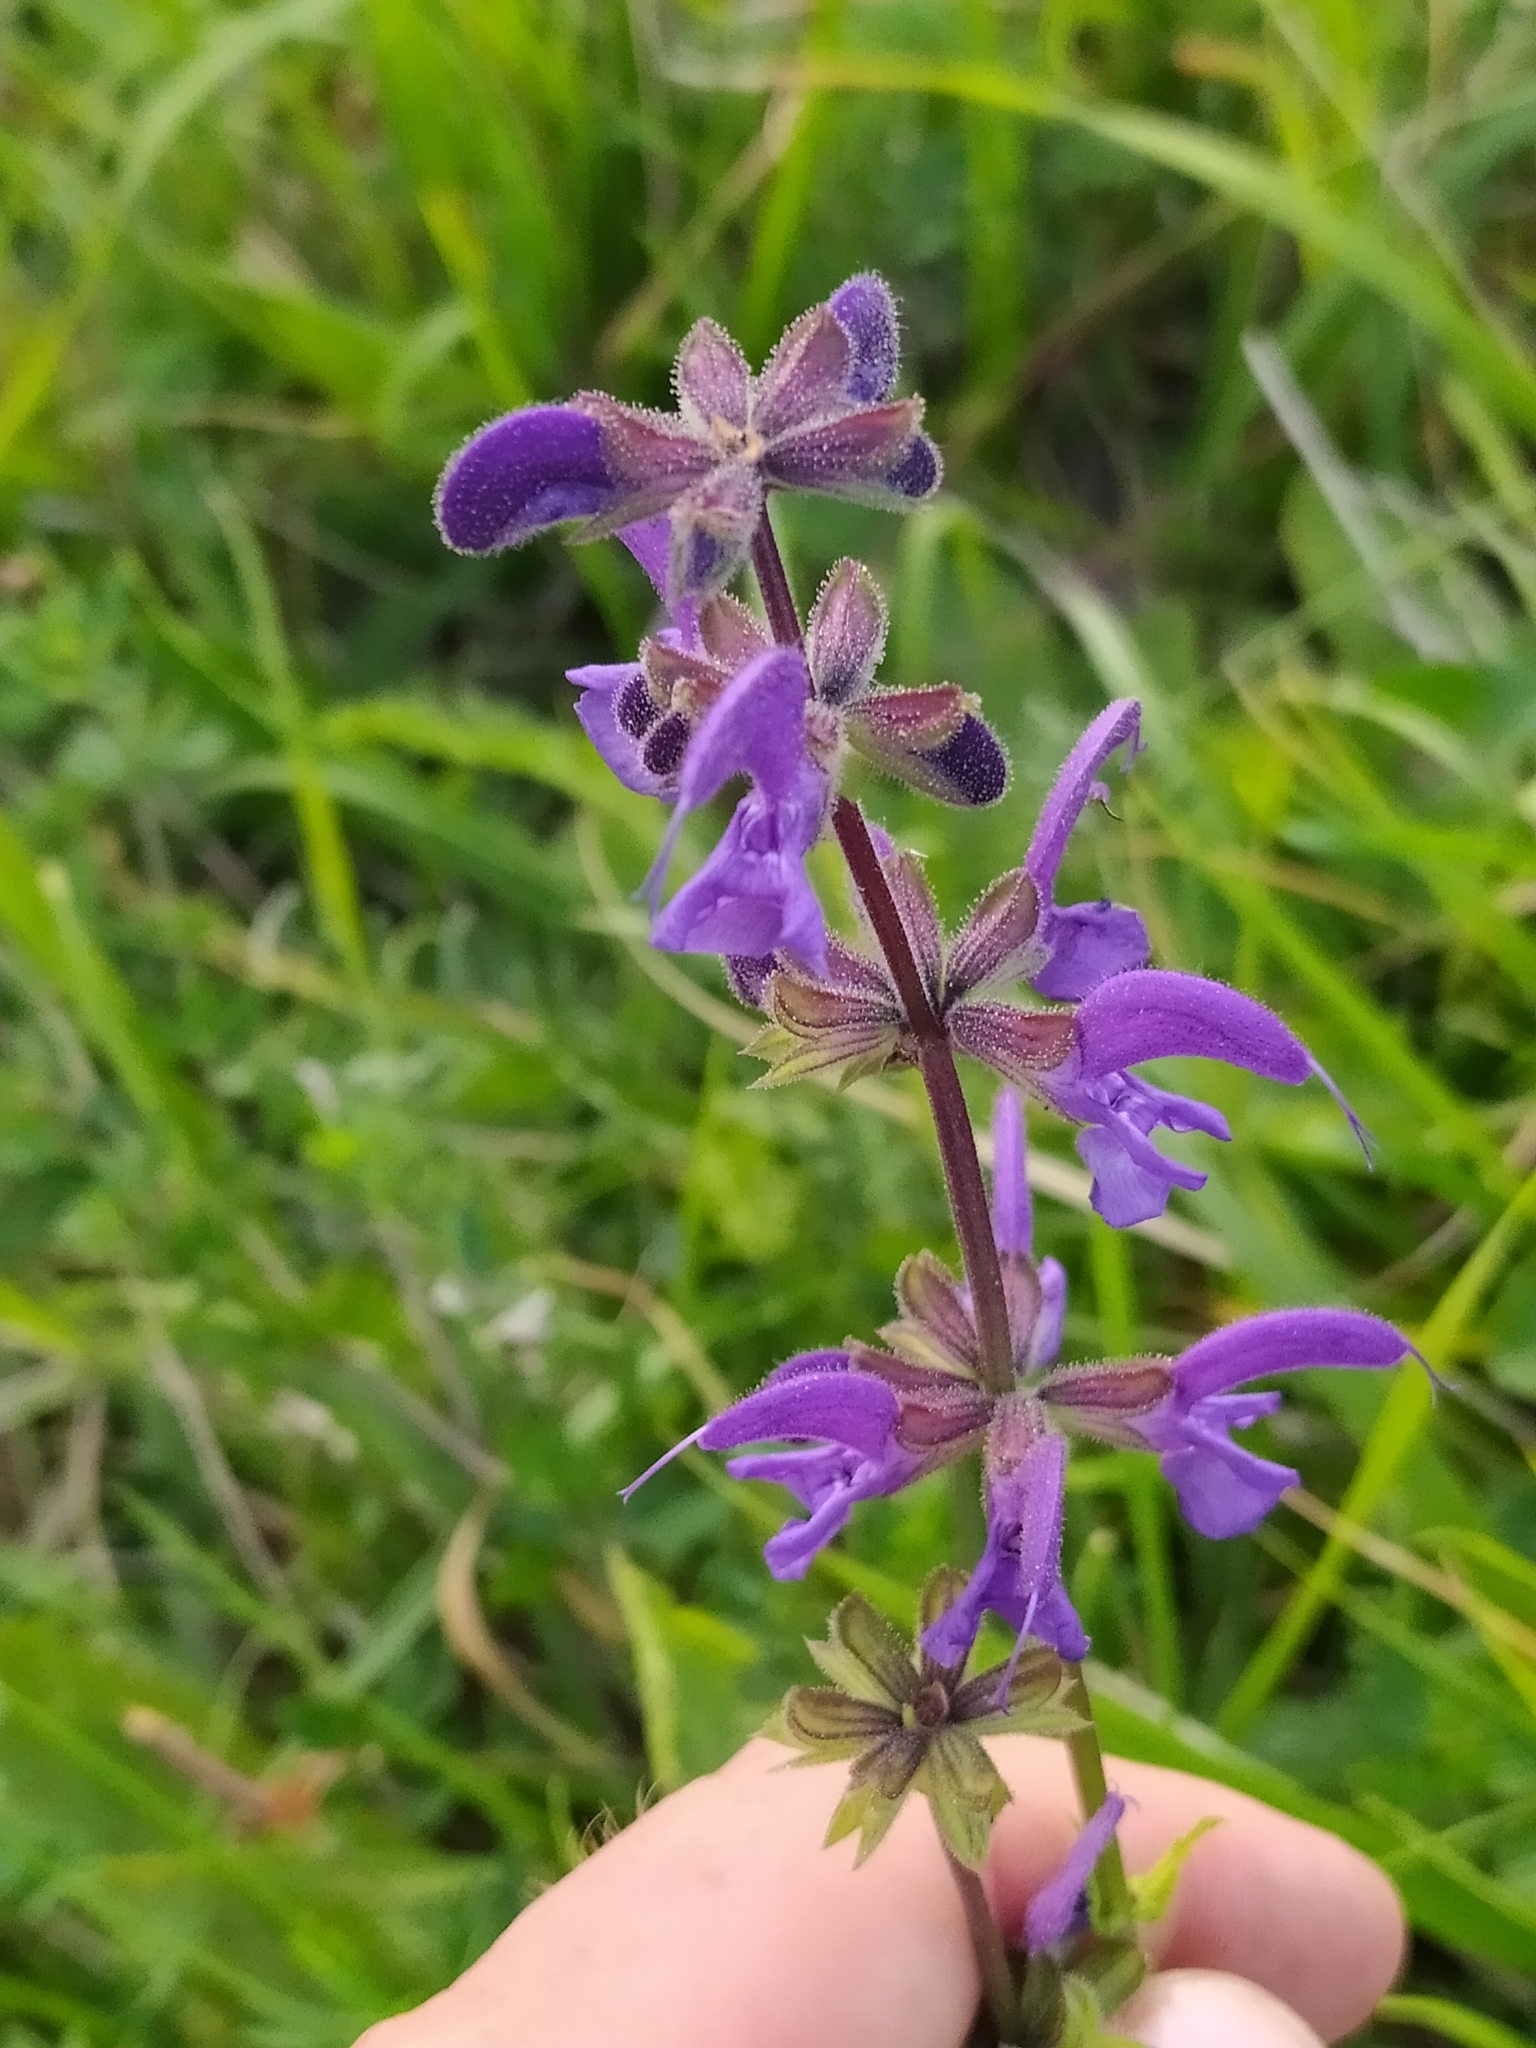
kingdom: Plantae
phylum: Tracheophyta
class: Magnoliopsida
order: Lamiales
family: Lamiaceae
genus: Salvia
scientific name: Salvia pratensis
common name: Meadow sage
